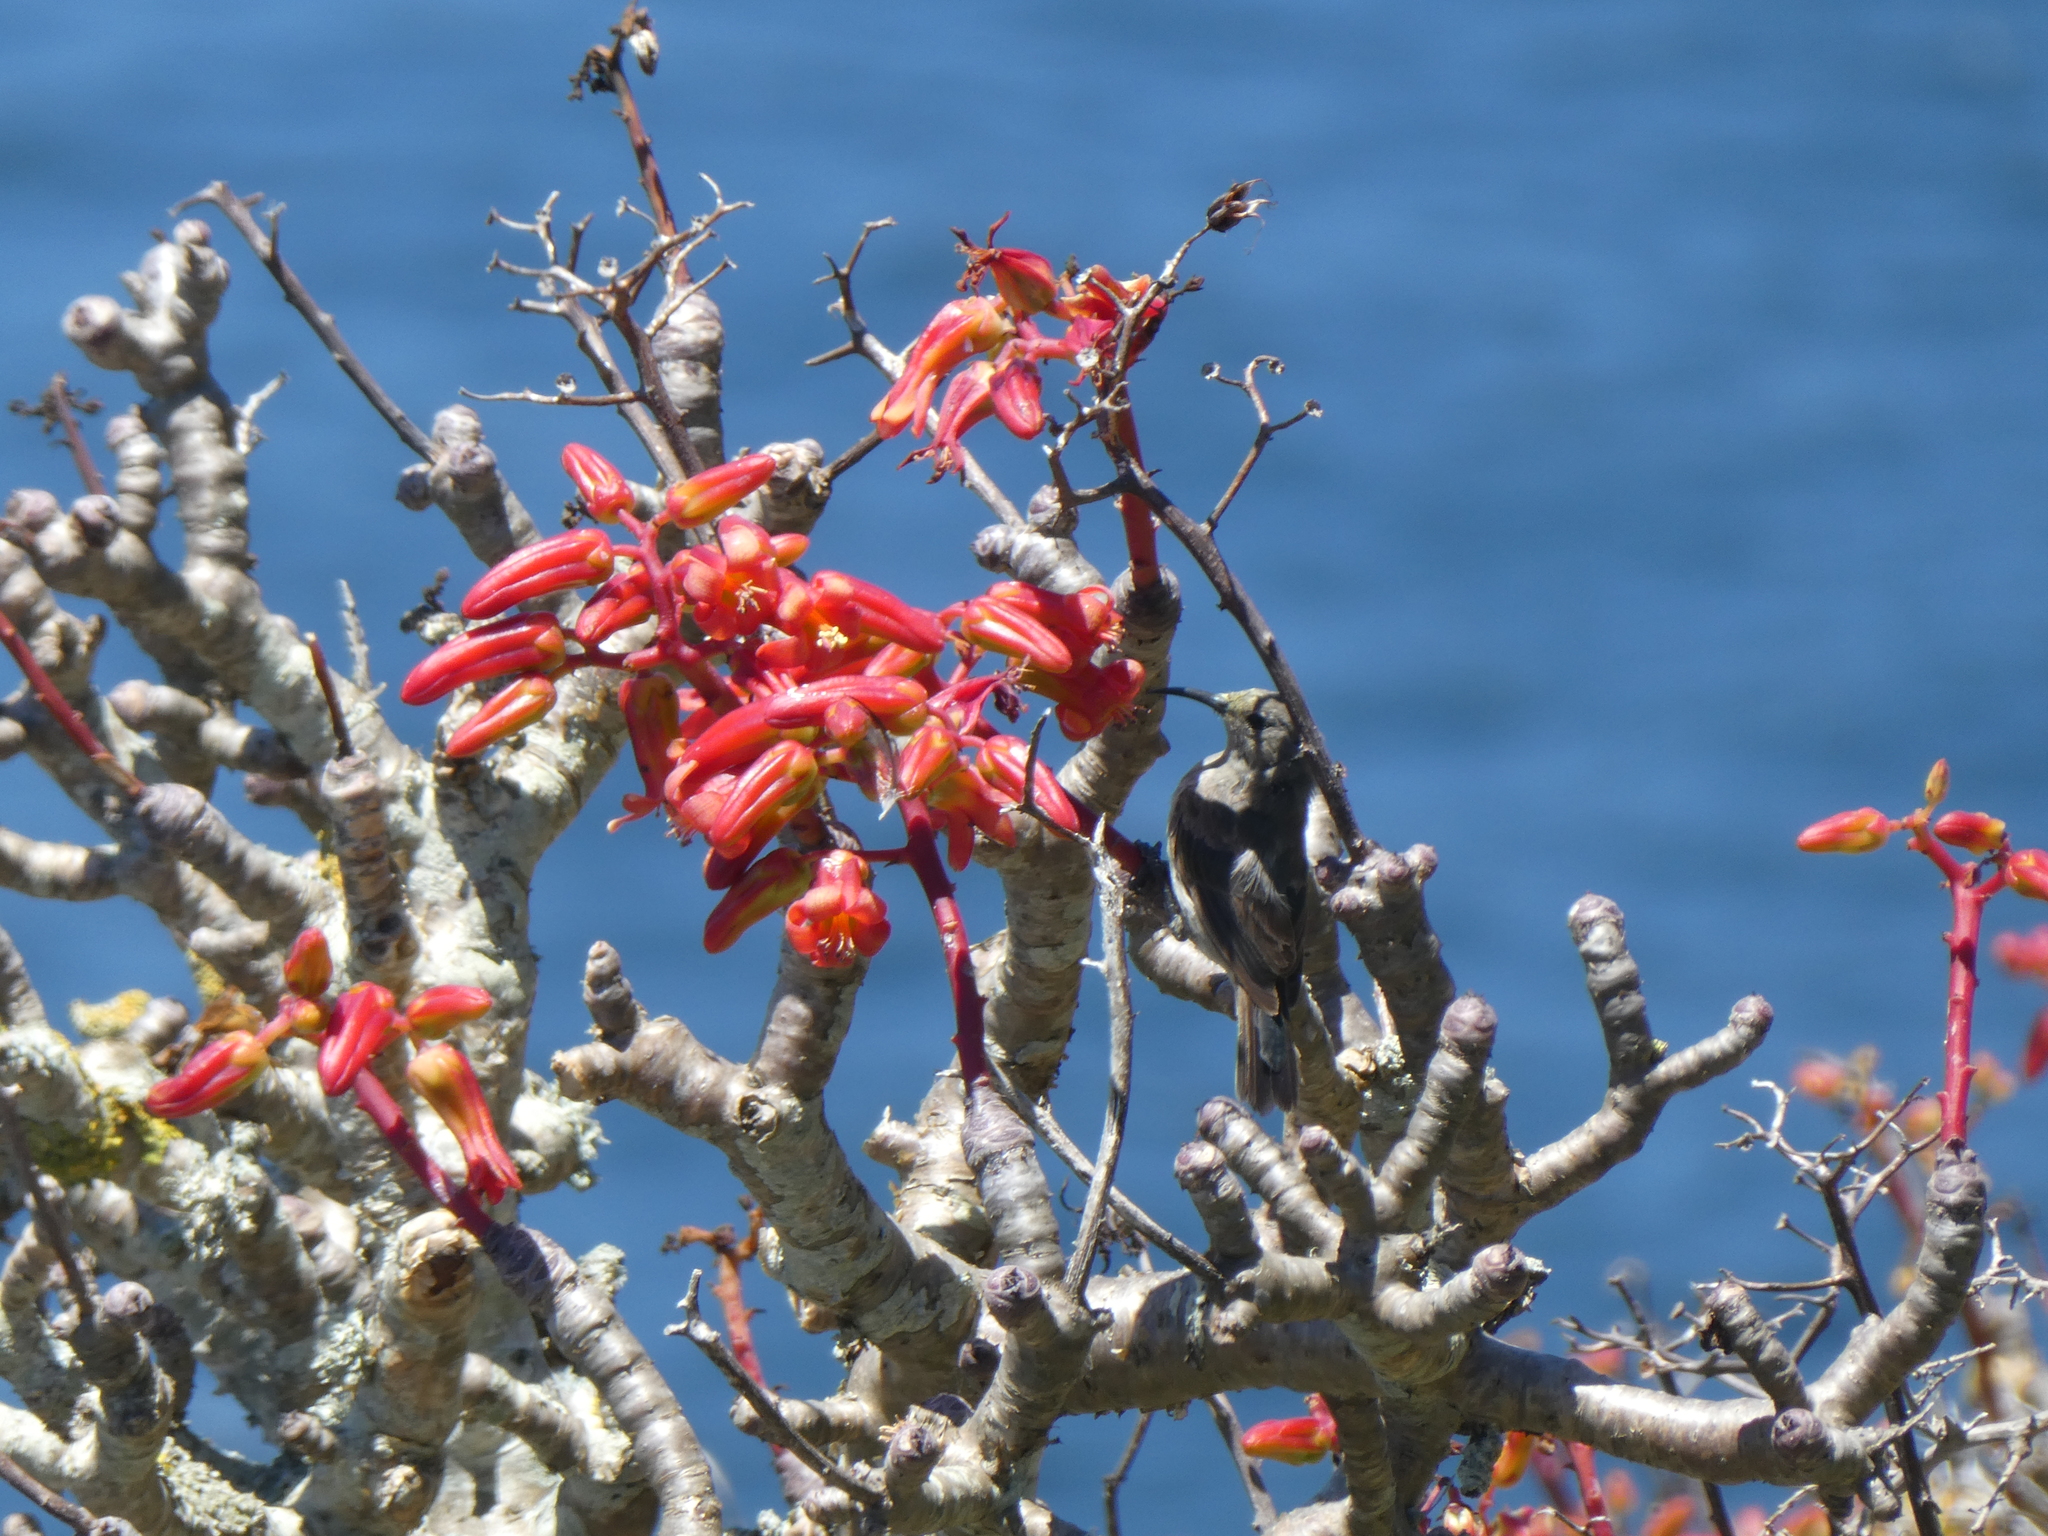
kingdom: Animalia
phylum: Chordata
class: Aves
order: Passeriformes
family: Nectariniidae
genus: Cinnyris
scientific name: Cinnyris chalybeus
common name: Southern double-collared sunbird
